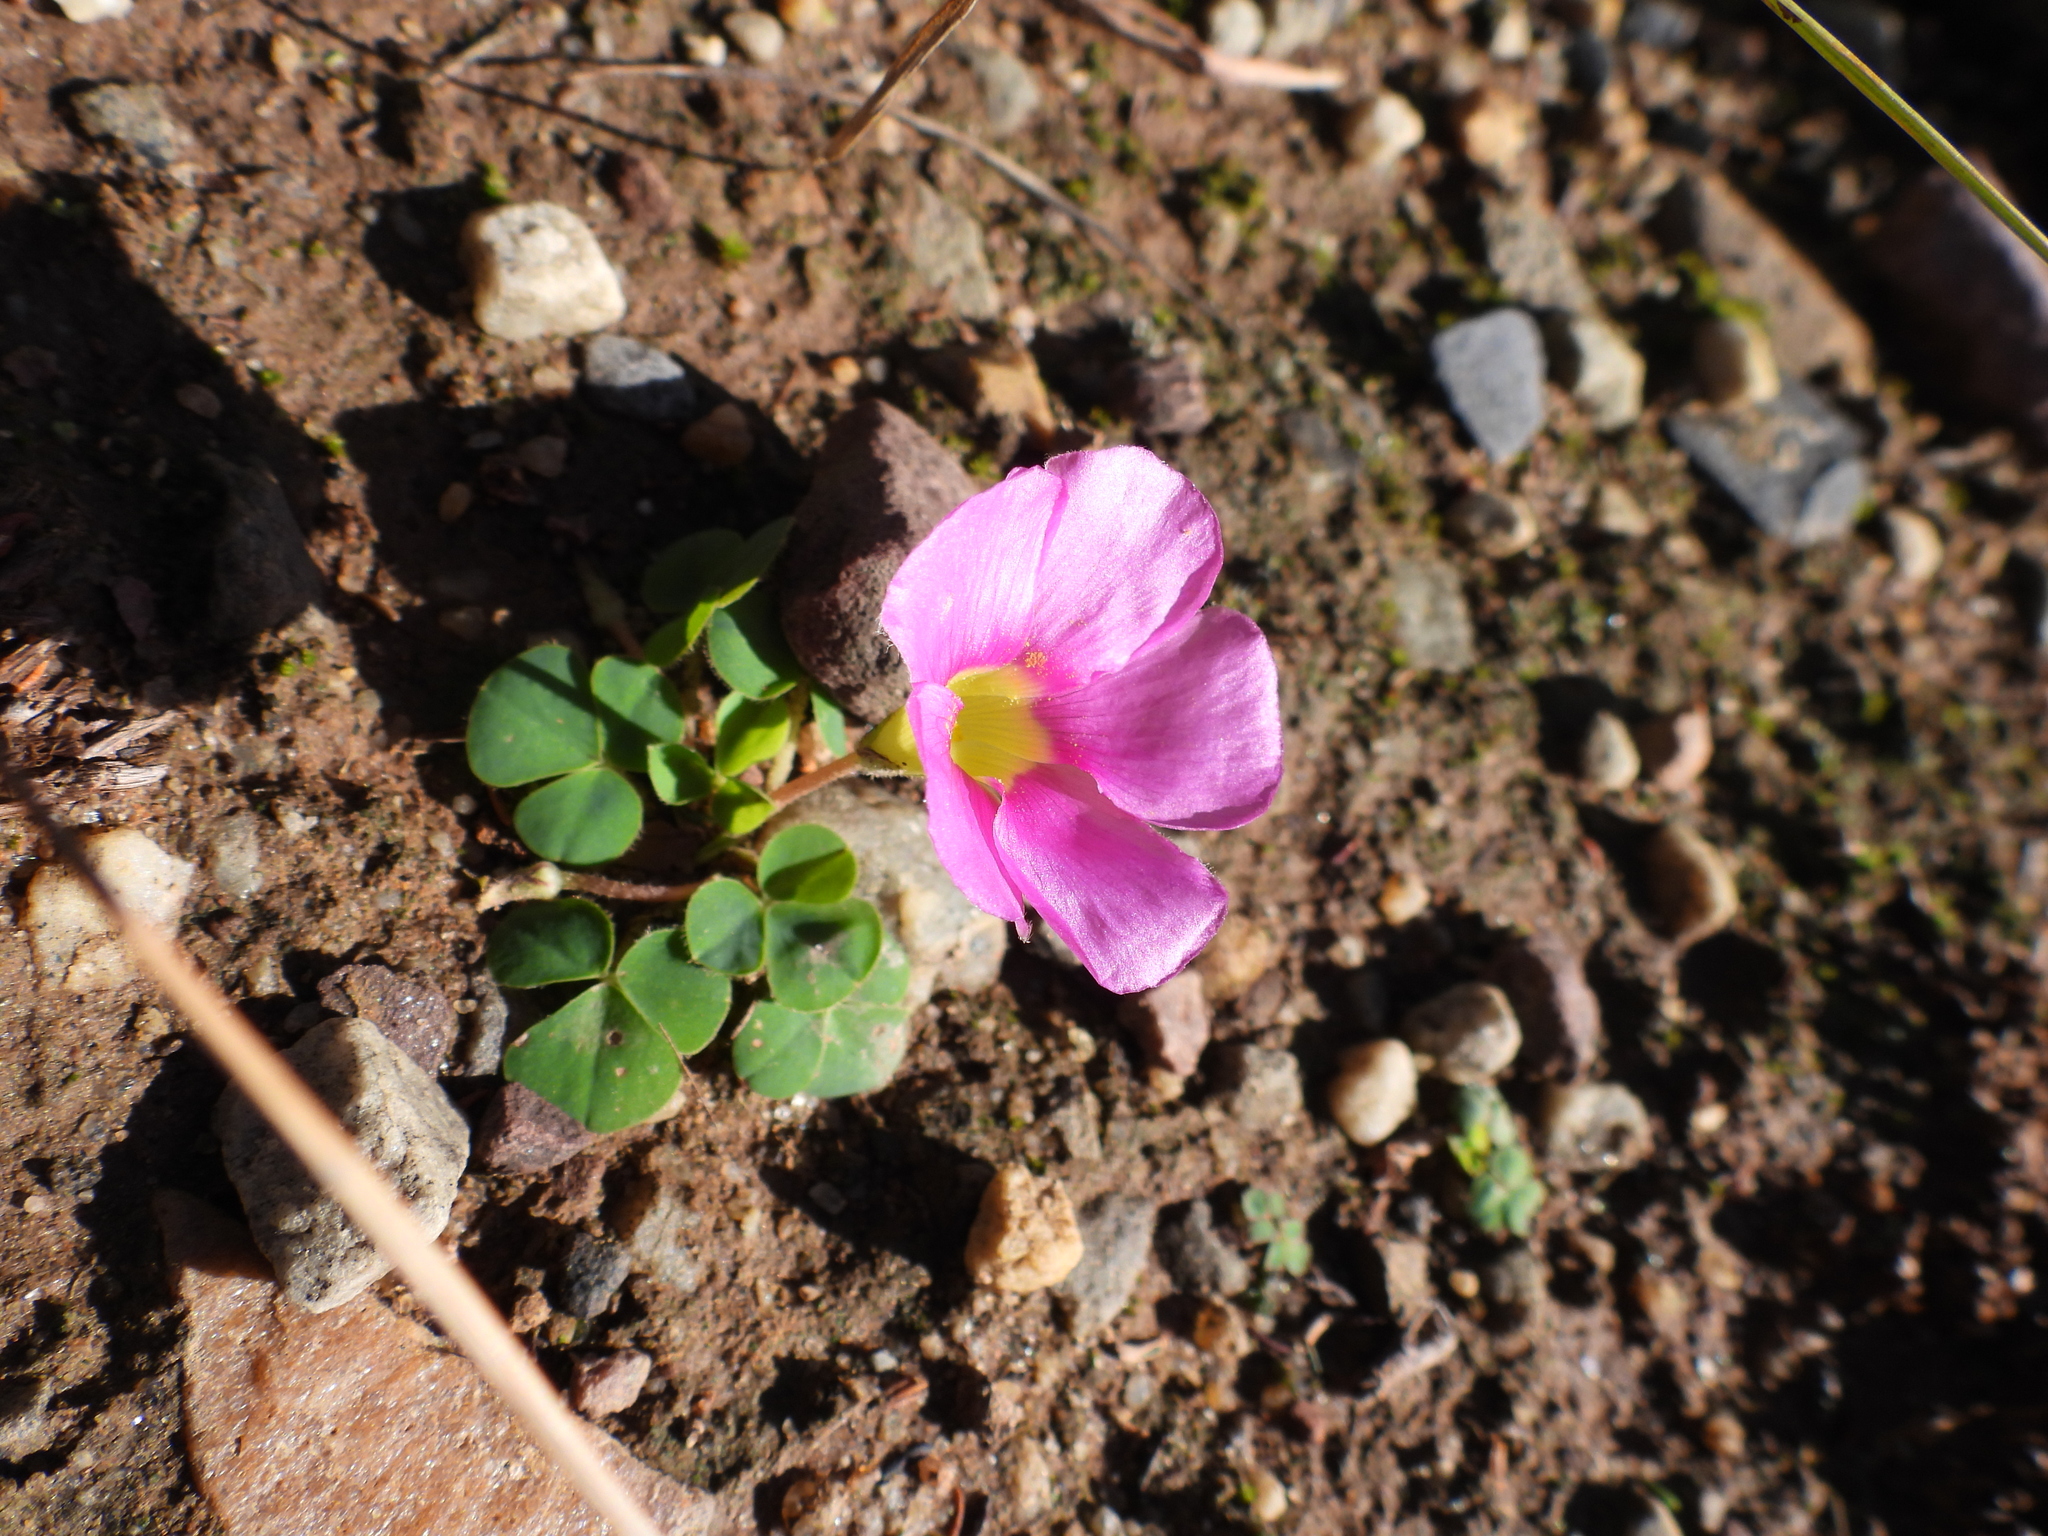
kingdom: Plantae
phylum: Tracheophyta
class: Magnoliopsida
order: Oxalidales
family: Oxalidaceae
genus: Oxalis
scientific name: Oxalis purpurea
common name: Purple woodsorrel
